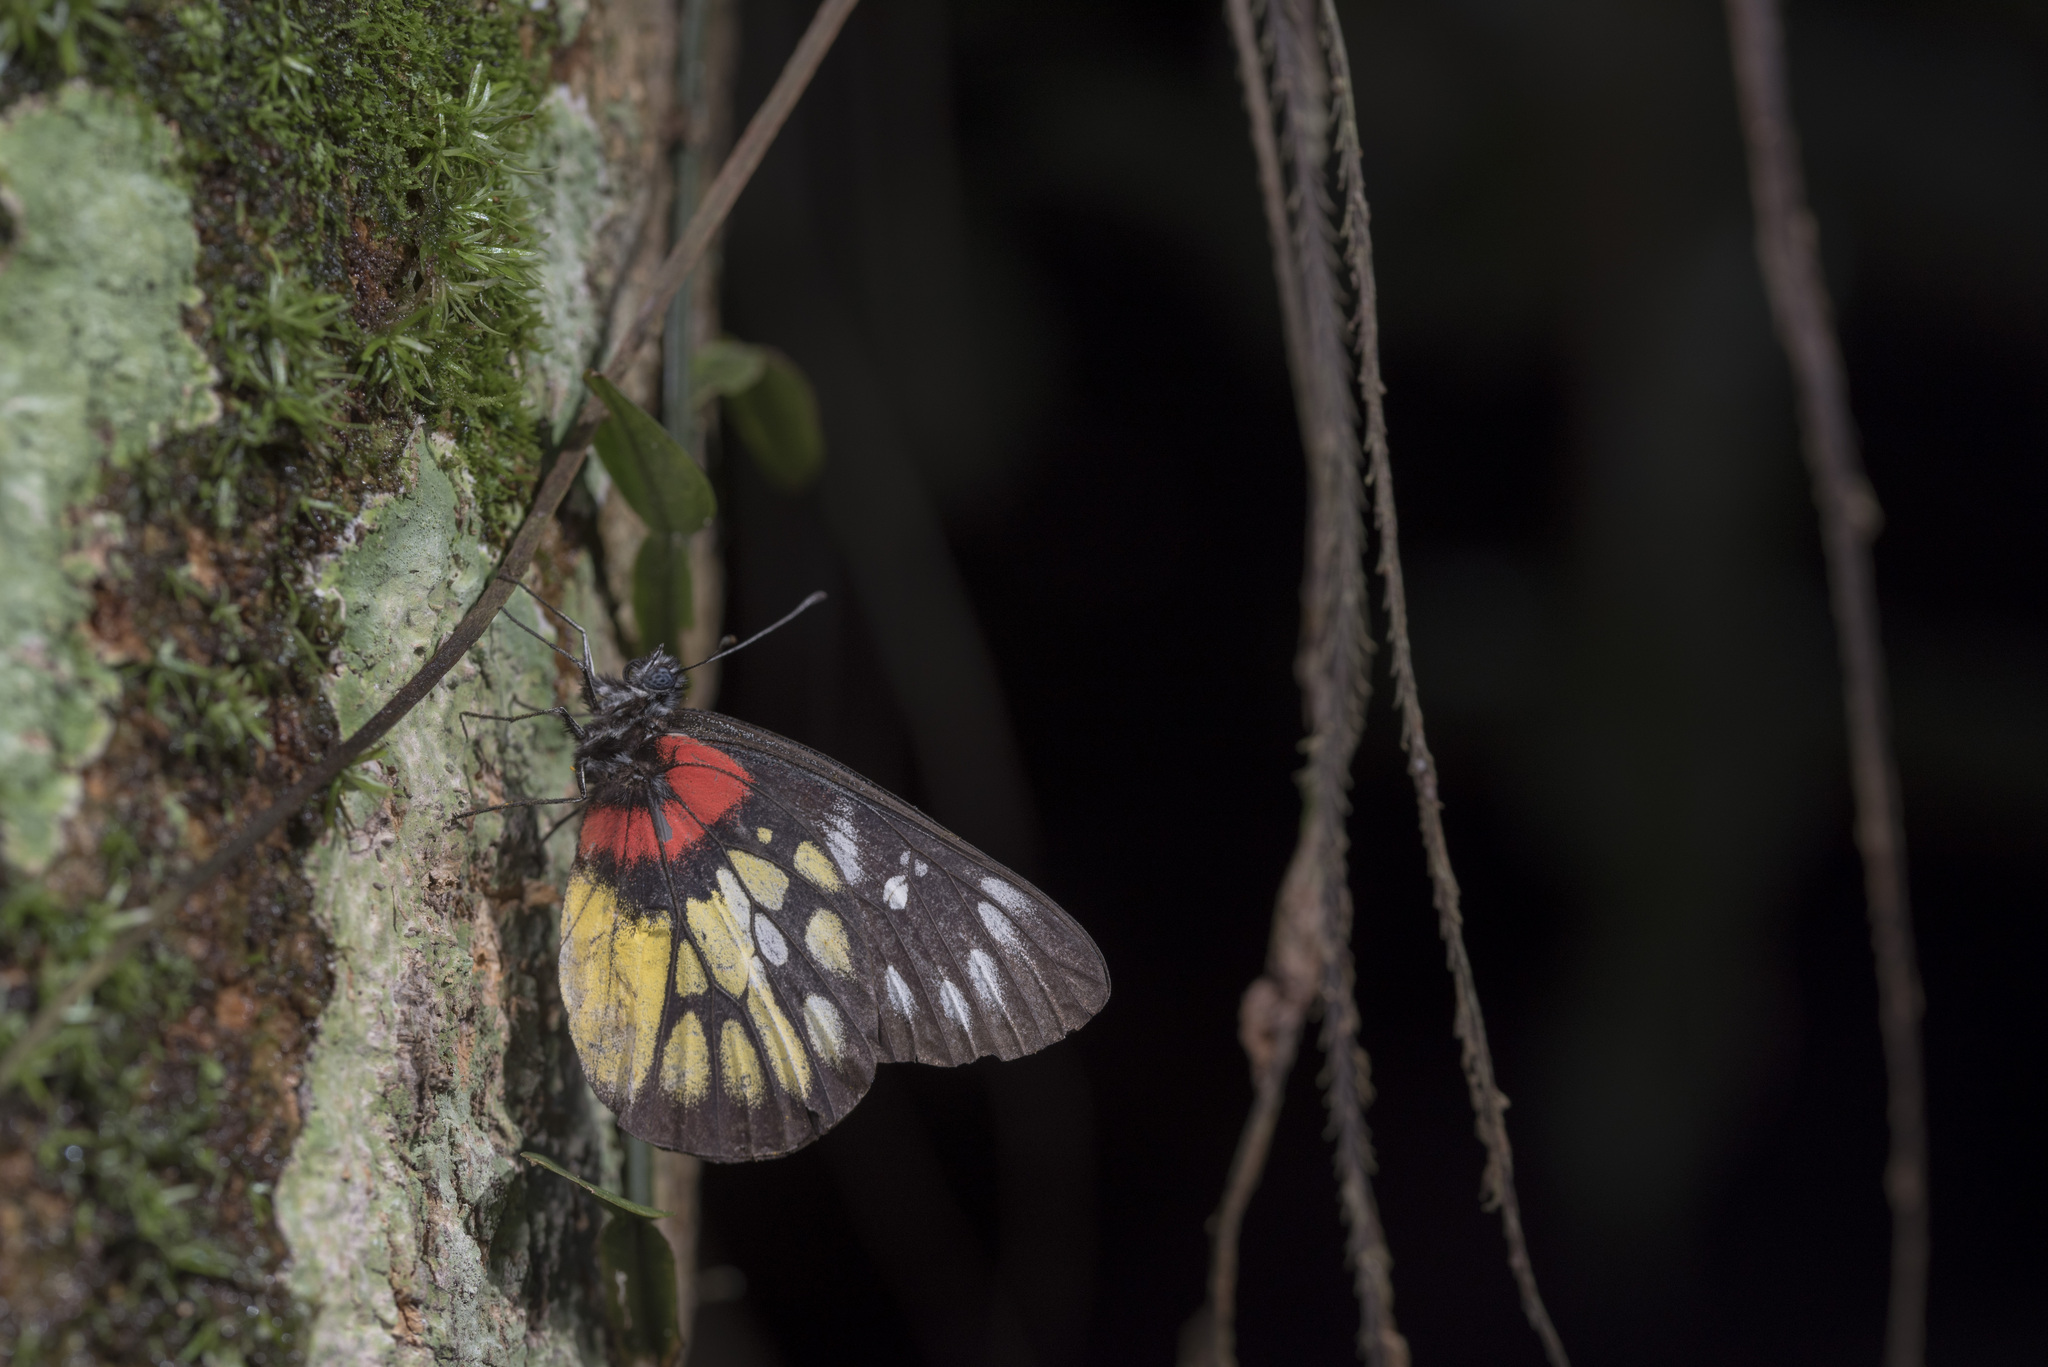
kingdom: Animalia
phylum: Arthropoda
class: Insecta
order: Lepidoptera
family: Pieridae
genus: Delias
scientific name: Delias pasithoe
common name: Red-base jezebel
